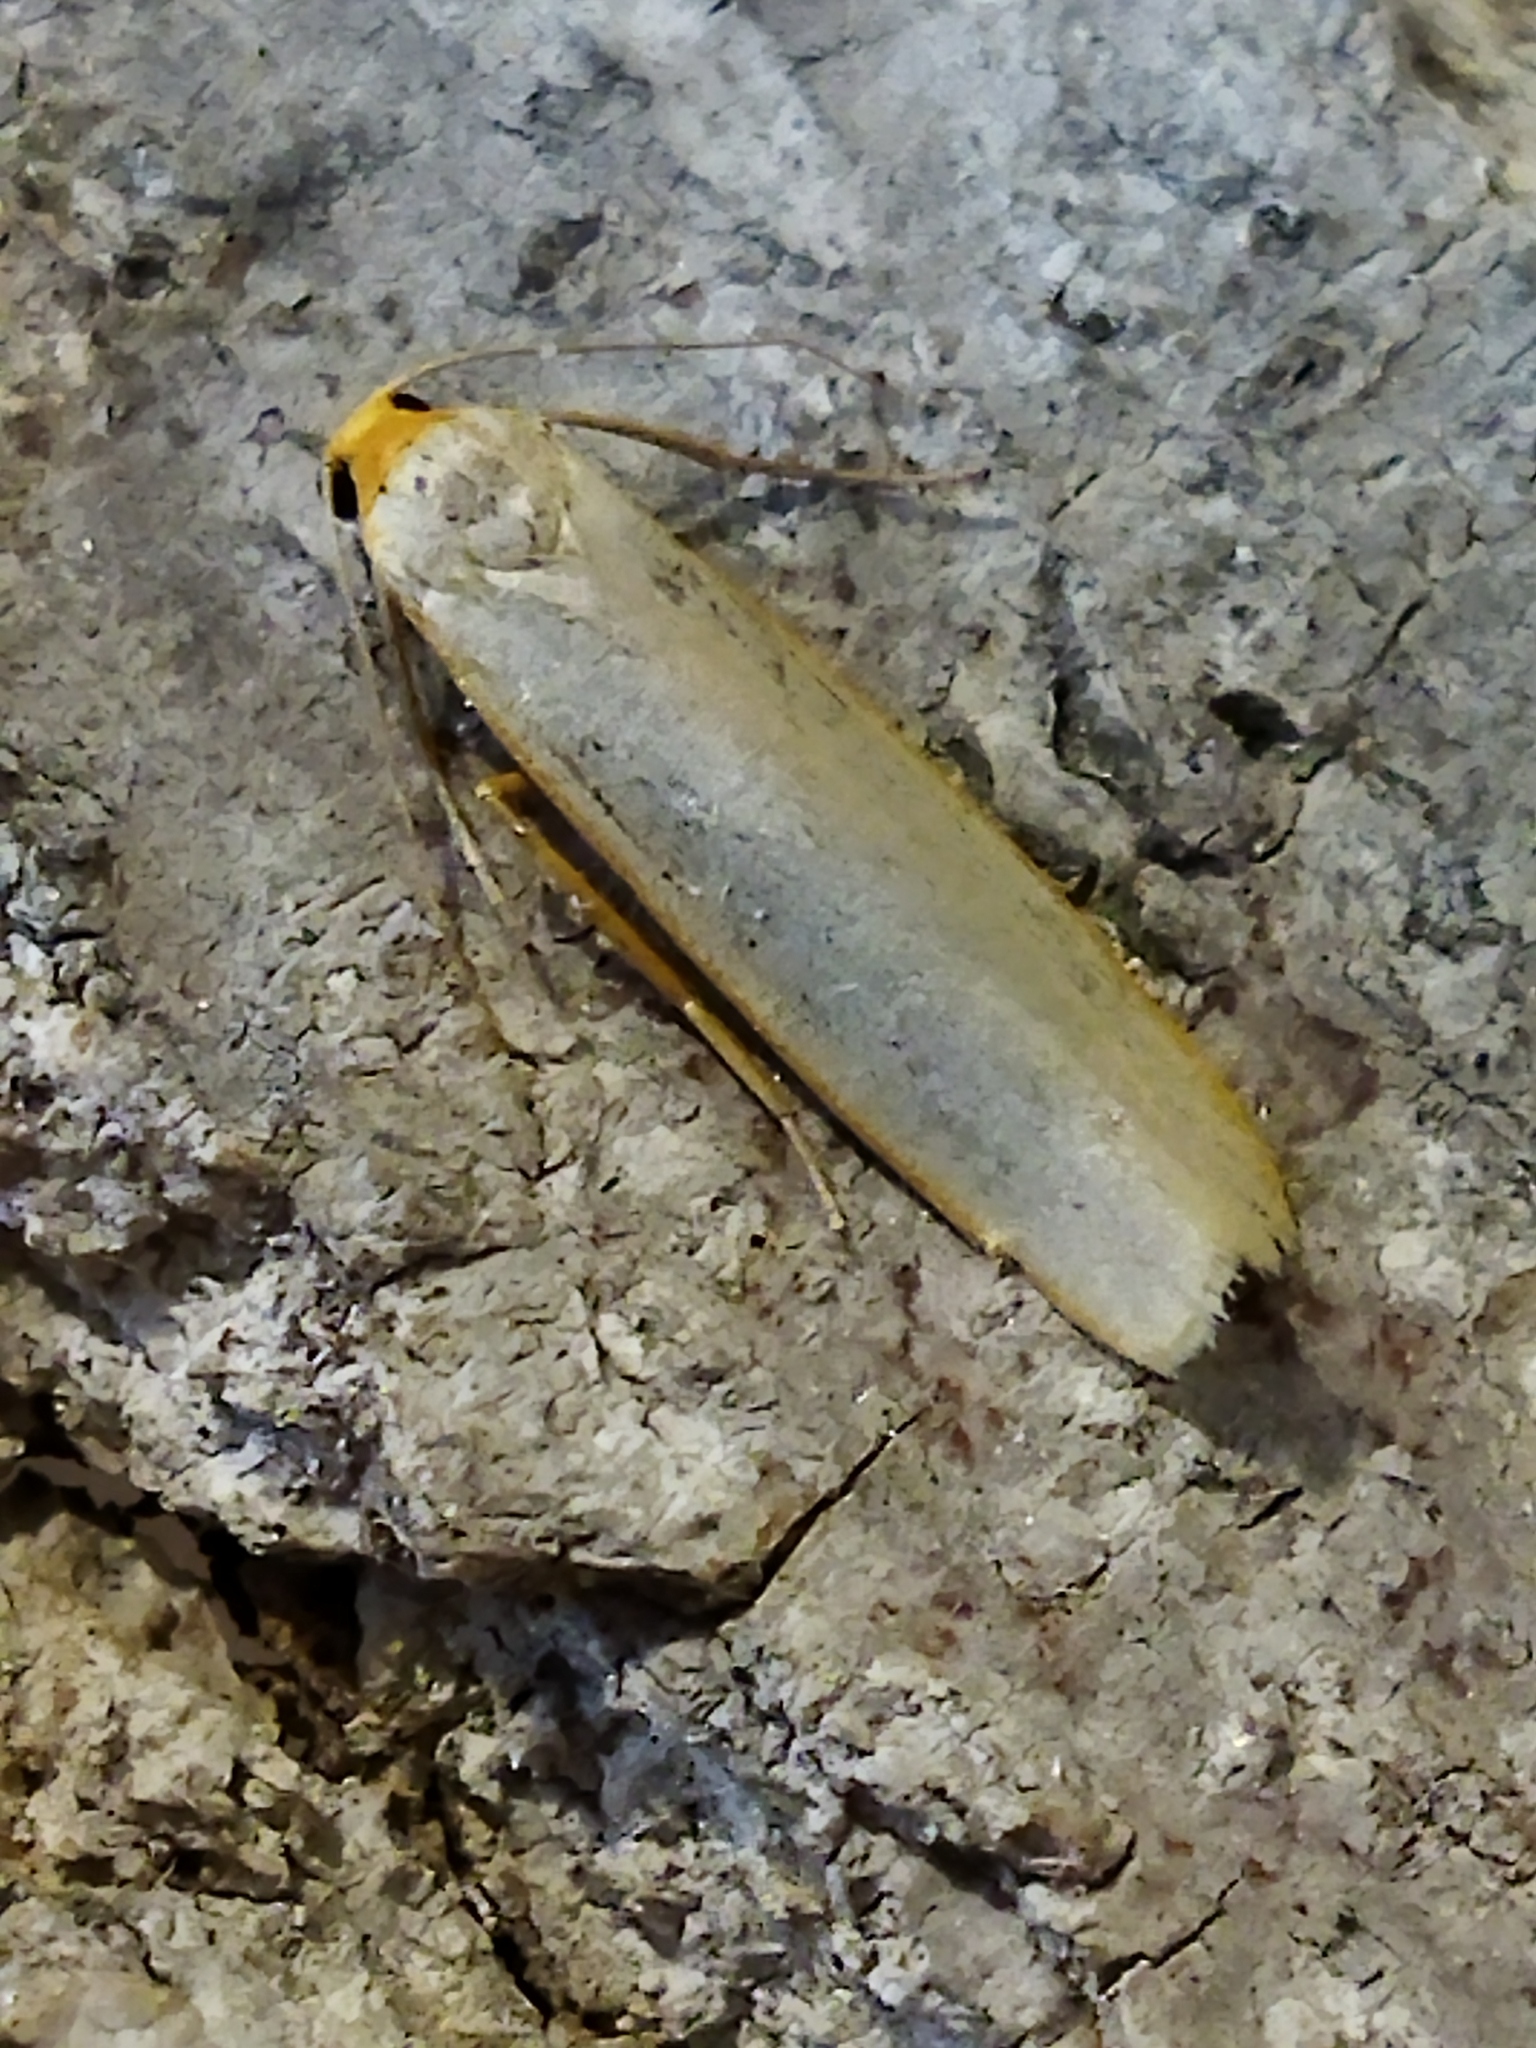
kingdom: Animalia
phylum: Arthropoda
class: Insecta
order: Lepidoptera
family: Erebidae
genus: Eilema
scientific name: Eilema caniola
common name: Hoary footman
